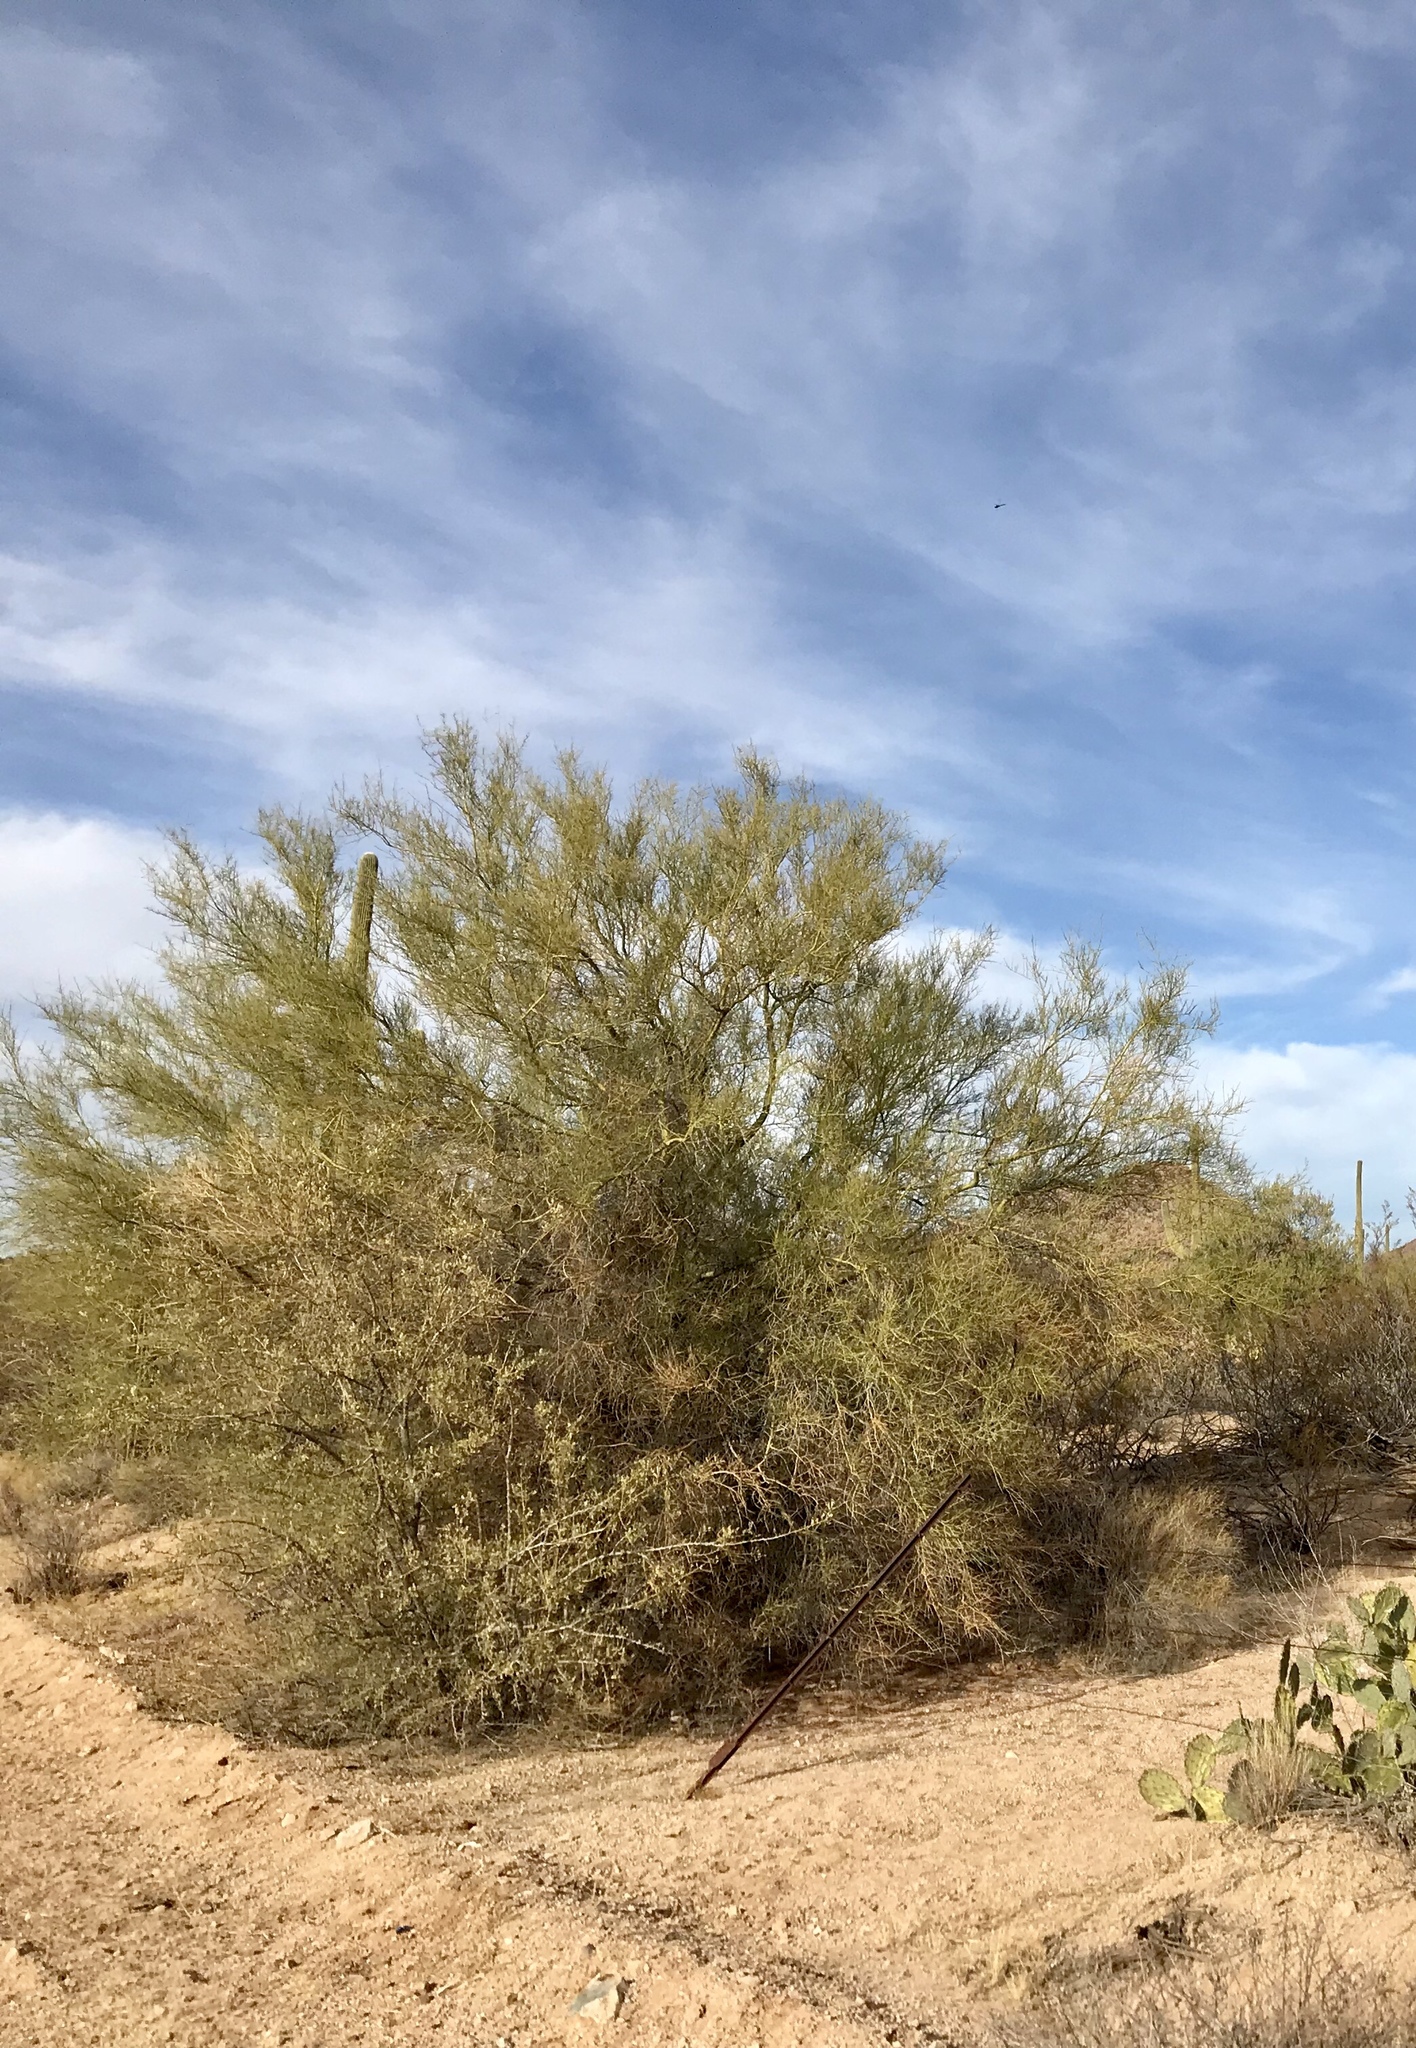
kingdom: Plantae
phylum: Tracheophyta
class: Magnoliopsida
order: Fabales
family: Fabaceae
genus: Parkinsonia
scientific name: Parkinsonia microphylla
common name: Yellow paloverde
